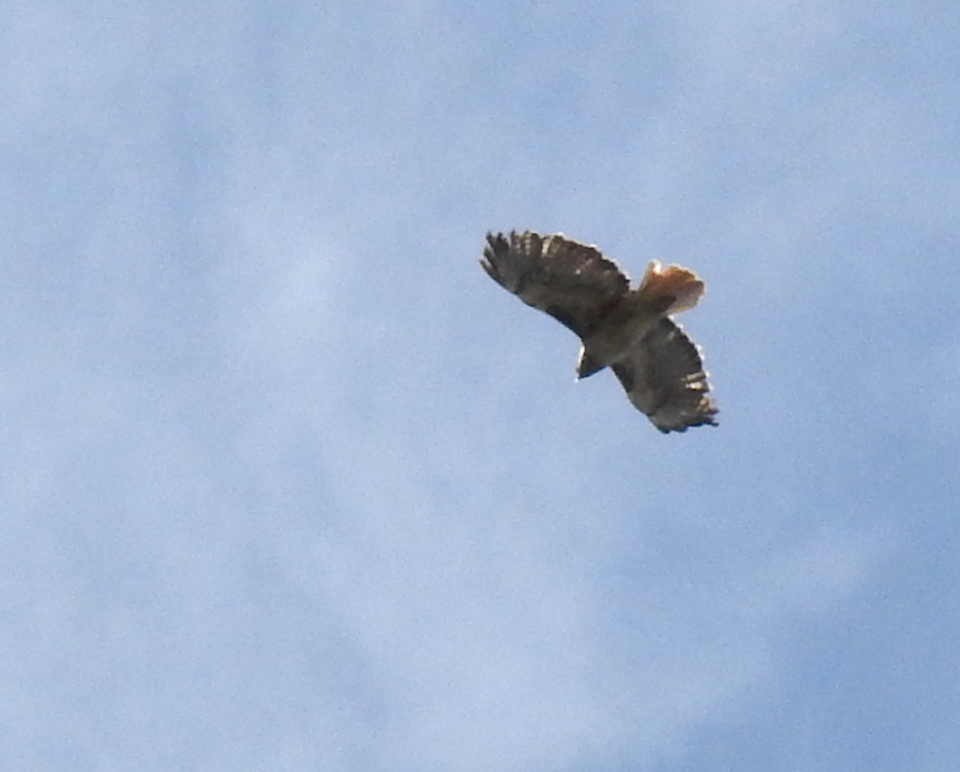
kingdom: Animalia
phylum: Chordata
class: Aves
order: Accipitriformes
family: Accipitridae
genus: Buteo
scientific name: Buteo jamaicensis
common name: Red-tailed hawk
